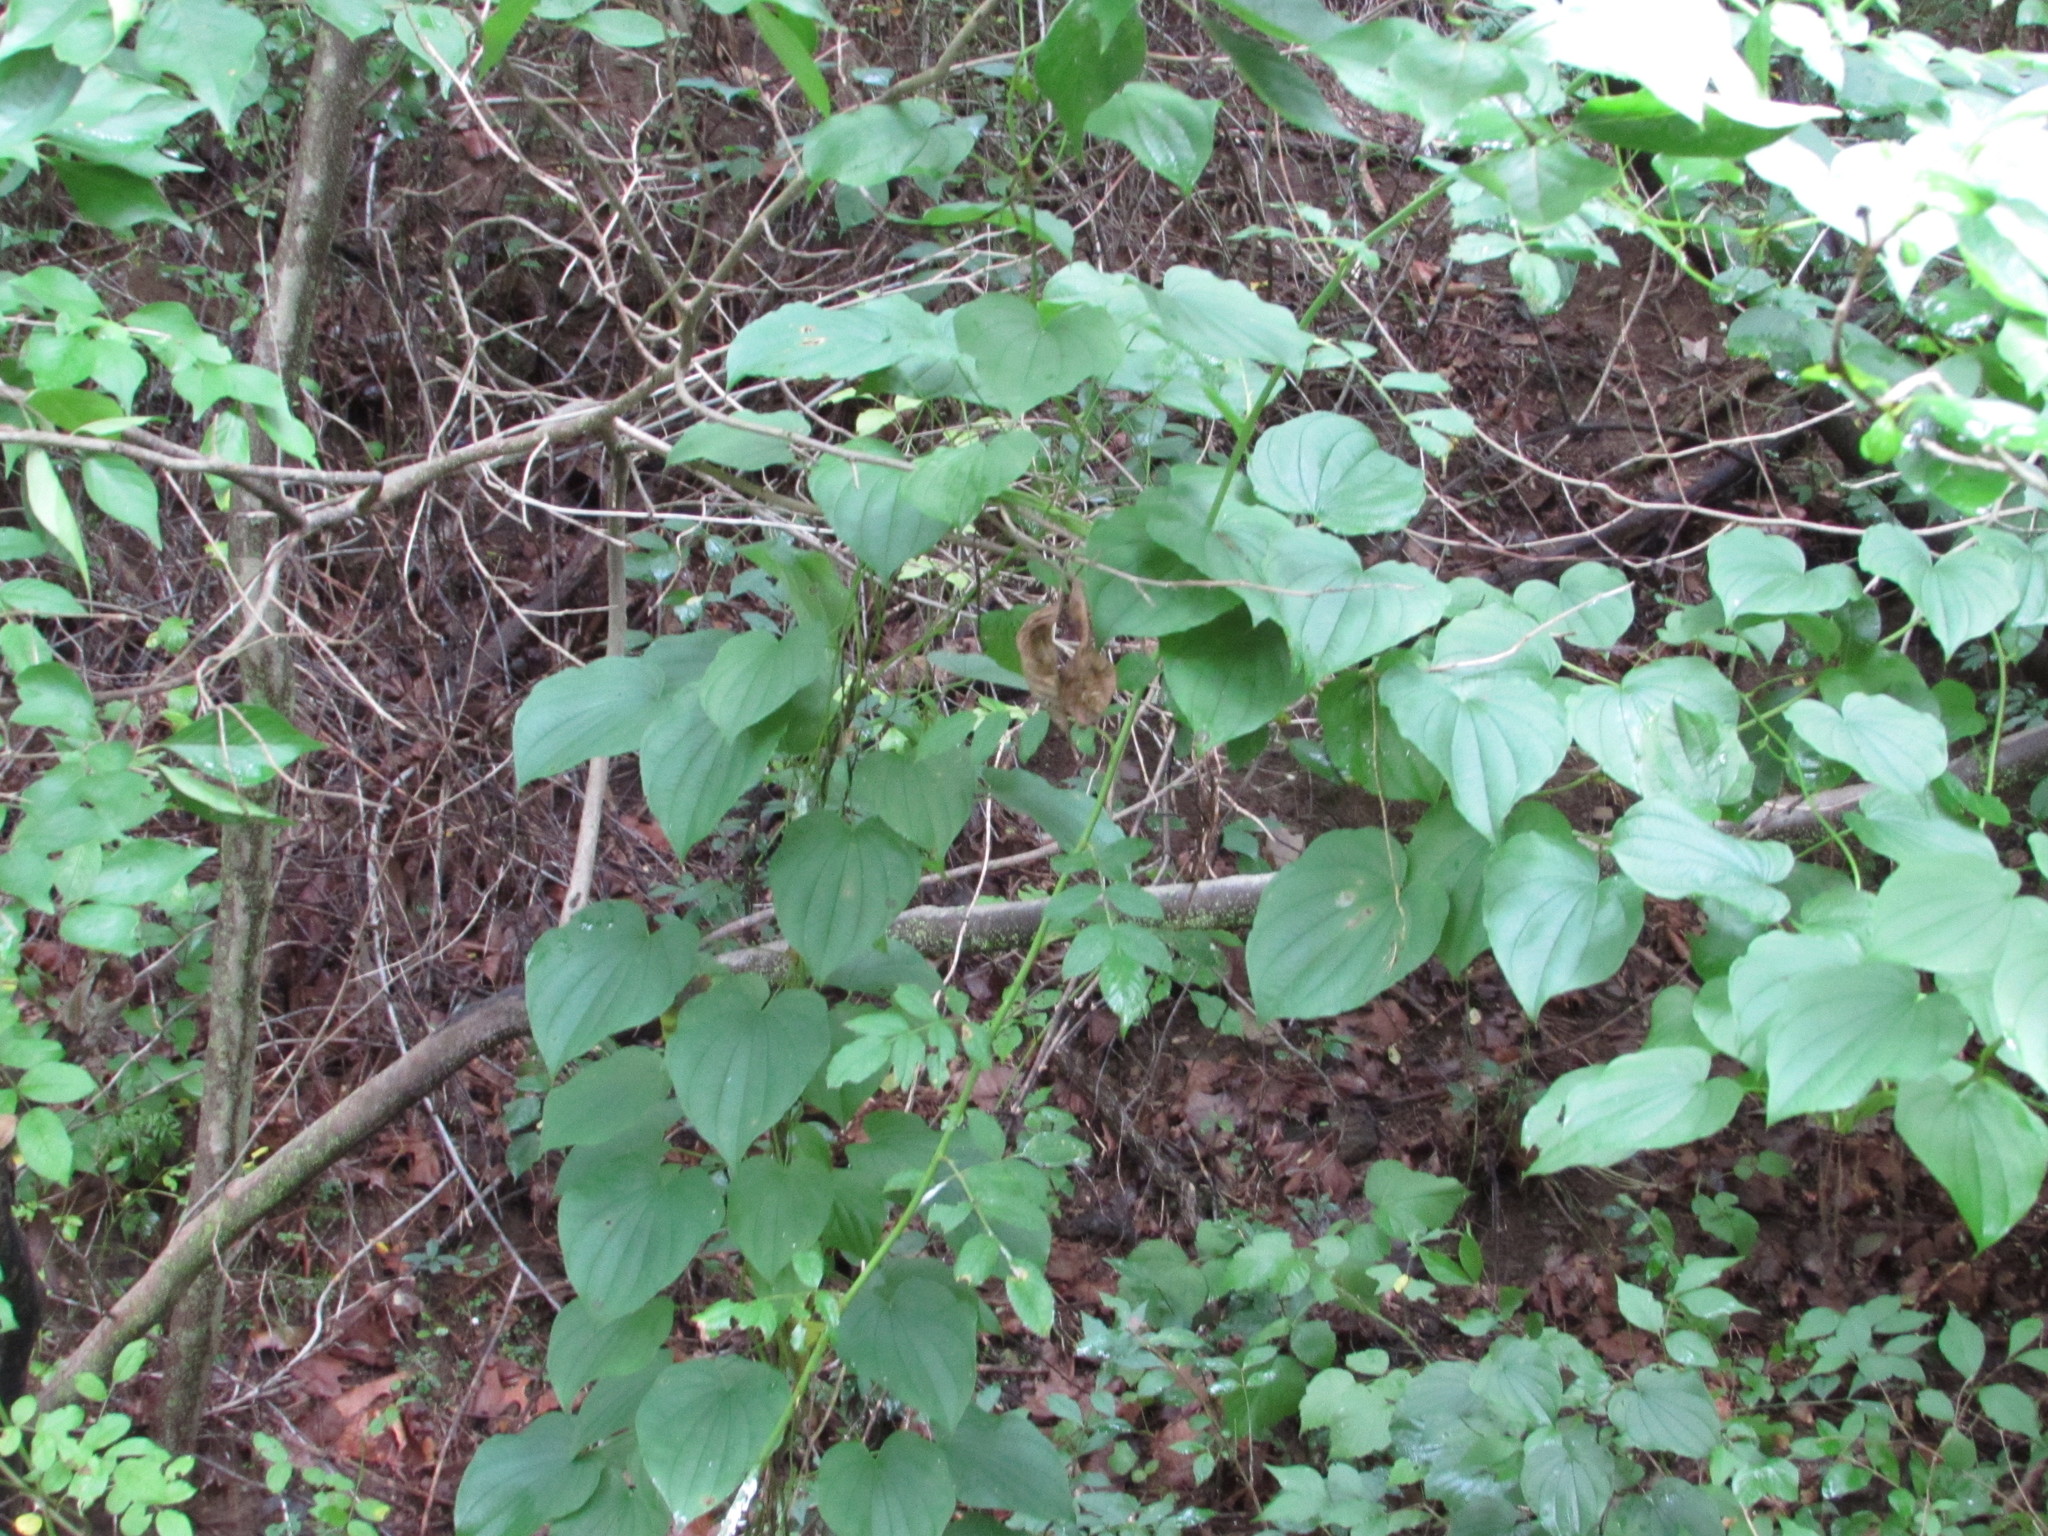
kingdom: Plantae
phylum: Tracheophyta
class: Liliopsida
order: Dioscoreales
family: Dioscoreaceae
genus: Dioscorea
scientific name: Dioscorea villosa
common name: Wild yam
